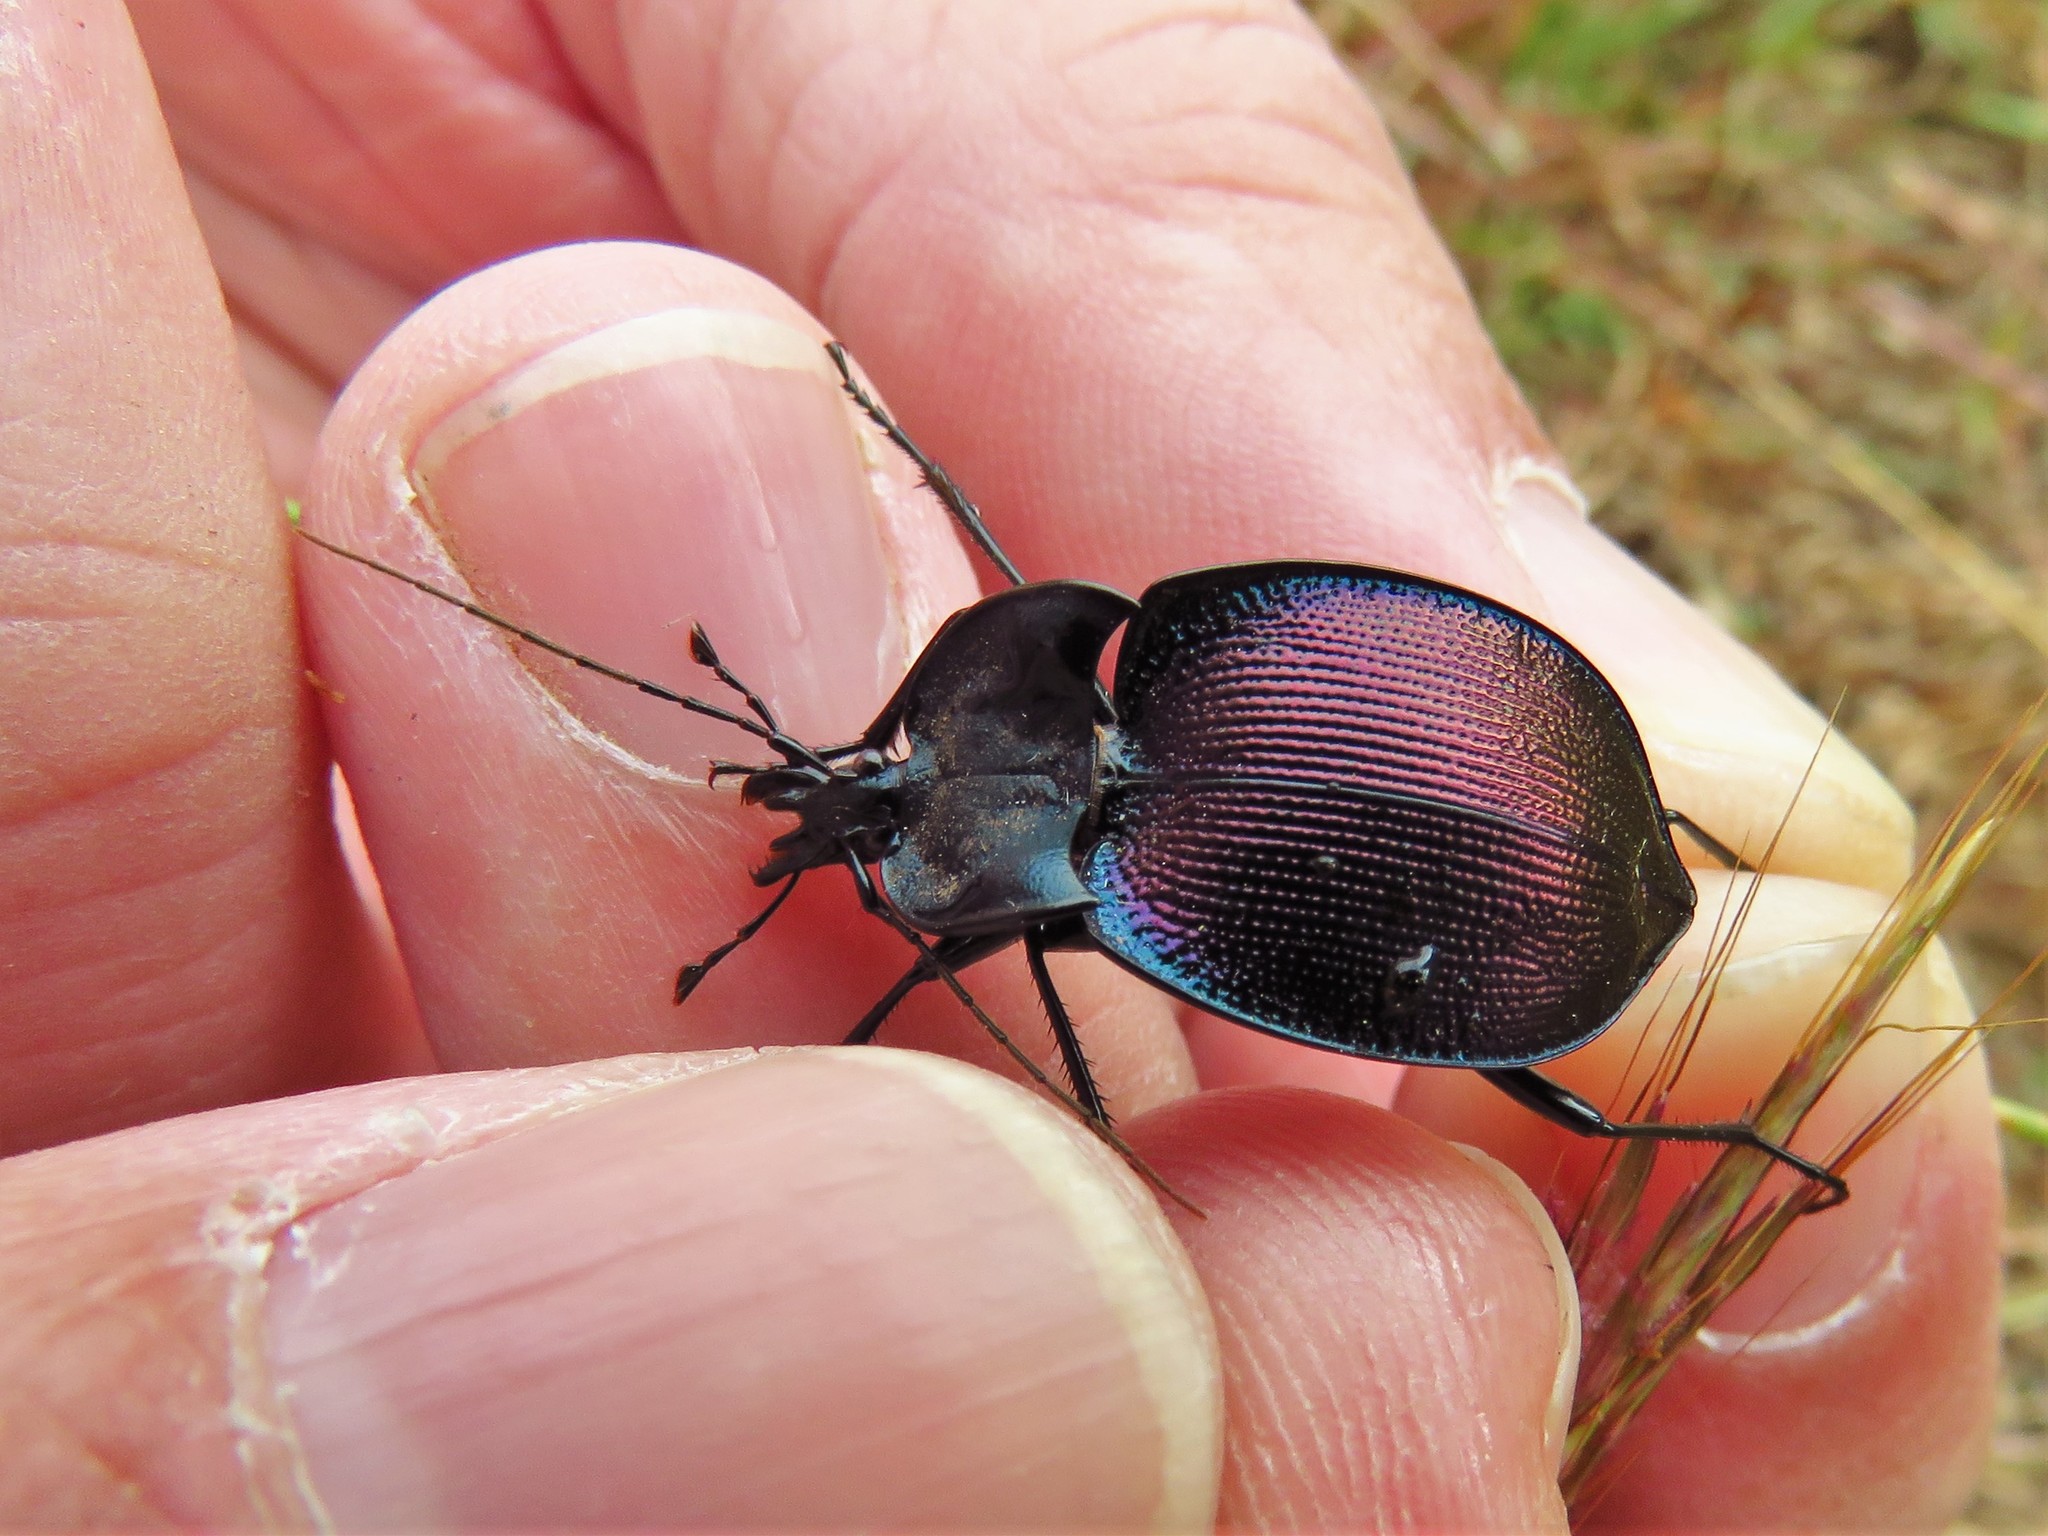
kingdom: Animalia
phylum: Arthropoda
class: Insecta
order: Coleoptera
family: Carabidae
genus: Scaphinotus
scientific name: Scaphinotus elevatus
